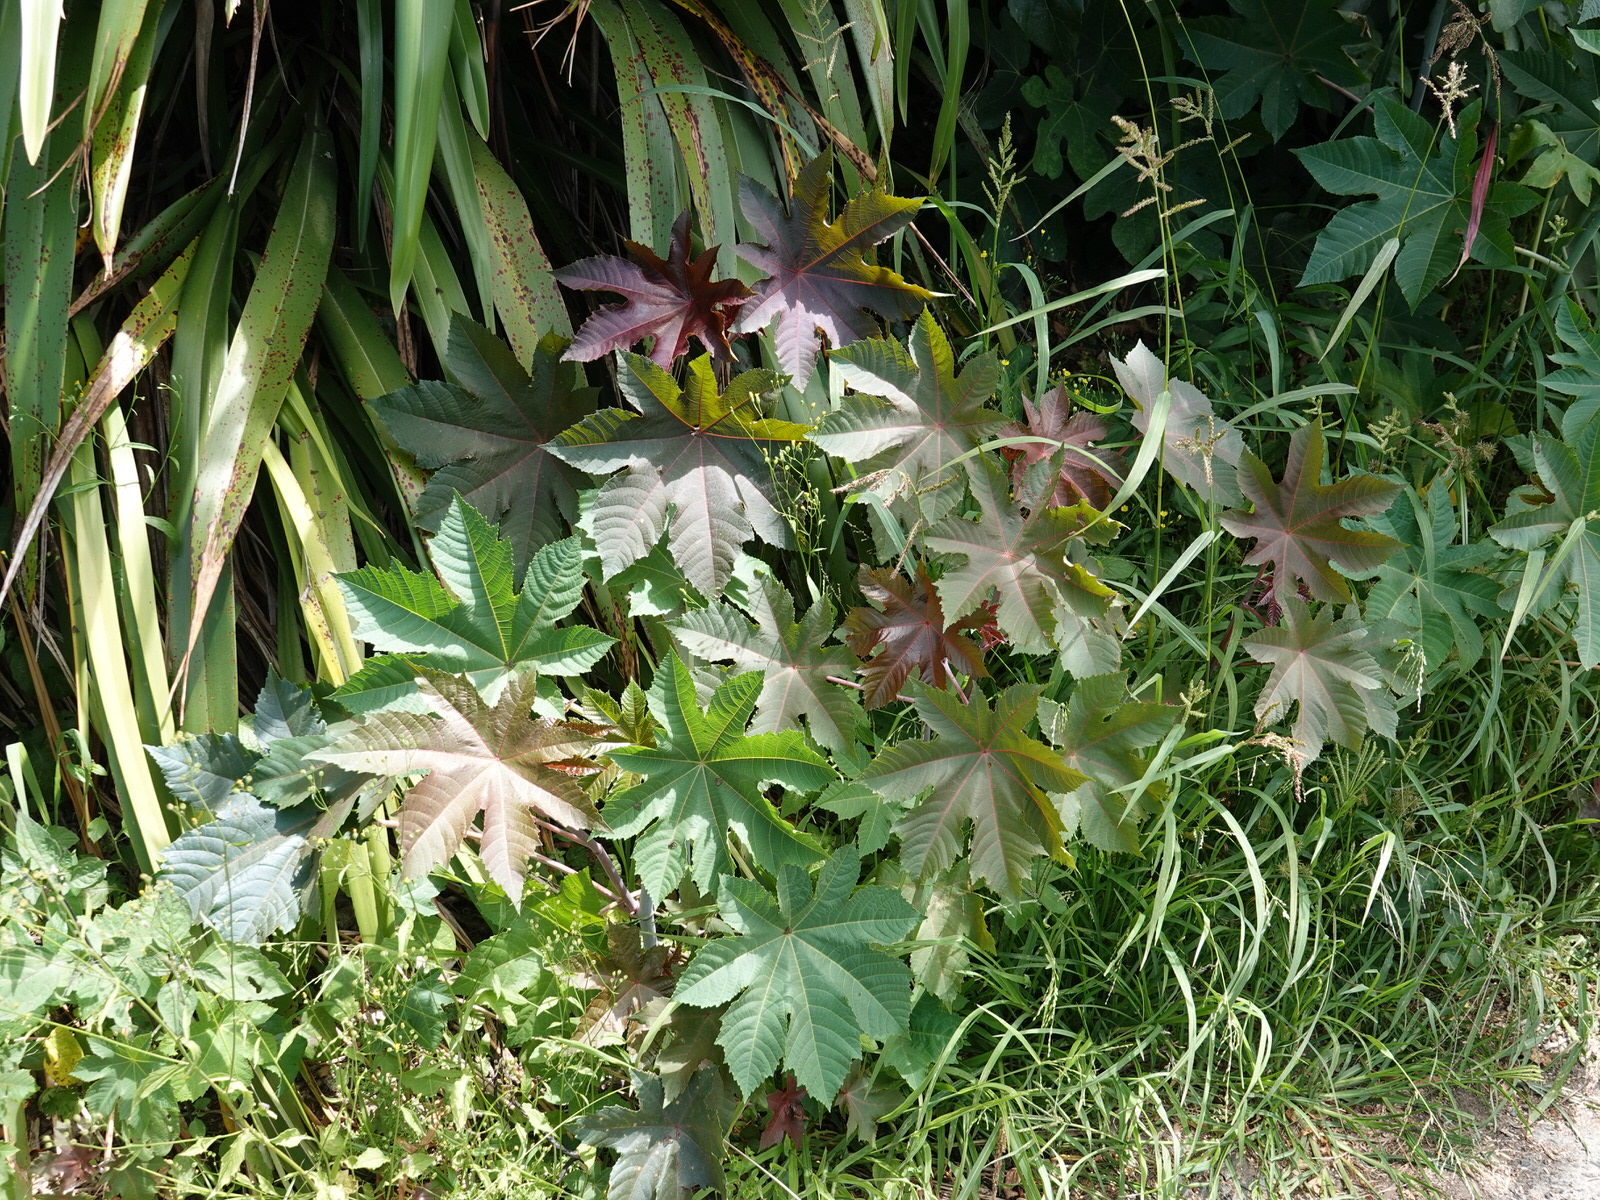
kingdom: Plantae
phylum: Tracheophyta
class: Magnoliopsida
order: Malpighiales
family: Euphorbiaceae
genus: Ricinus
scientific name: Ricinus communis
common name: Castor-oil-plant
